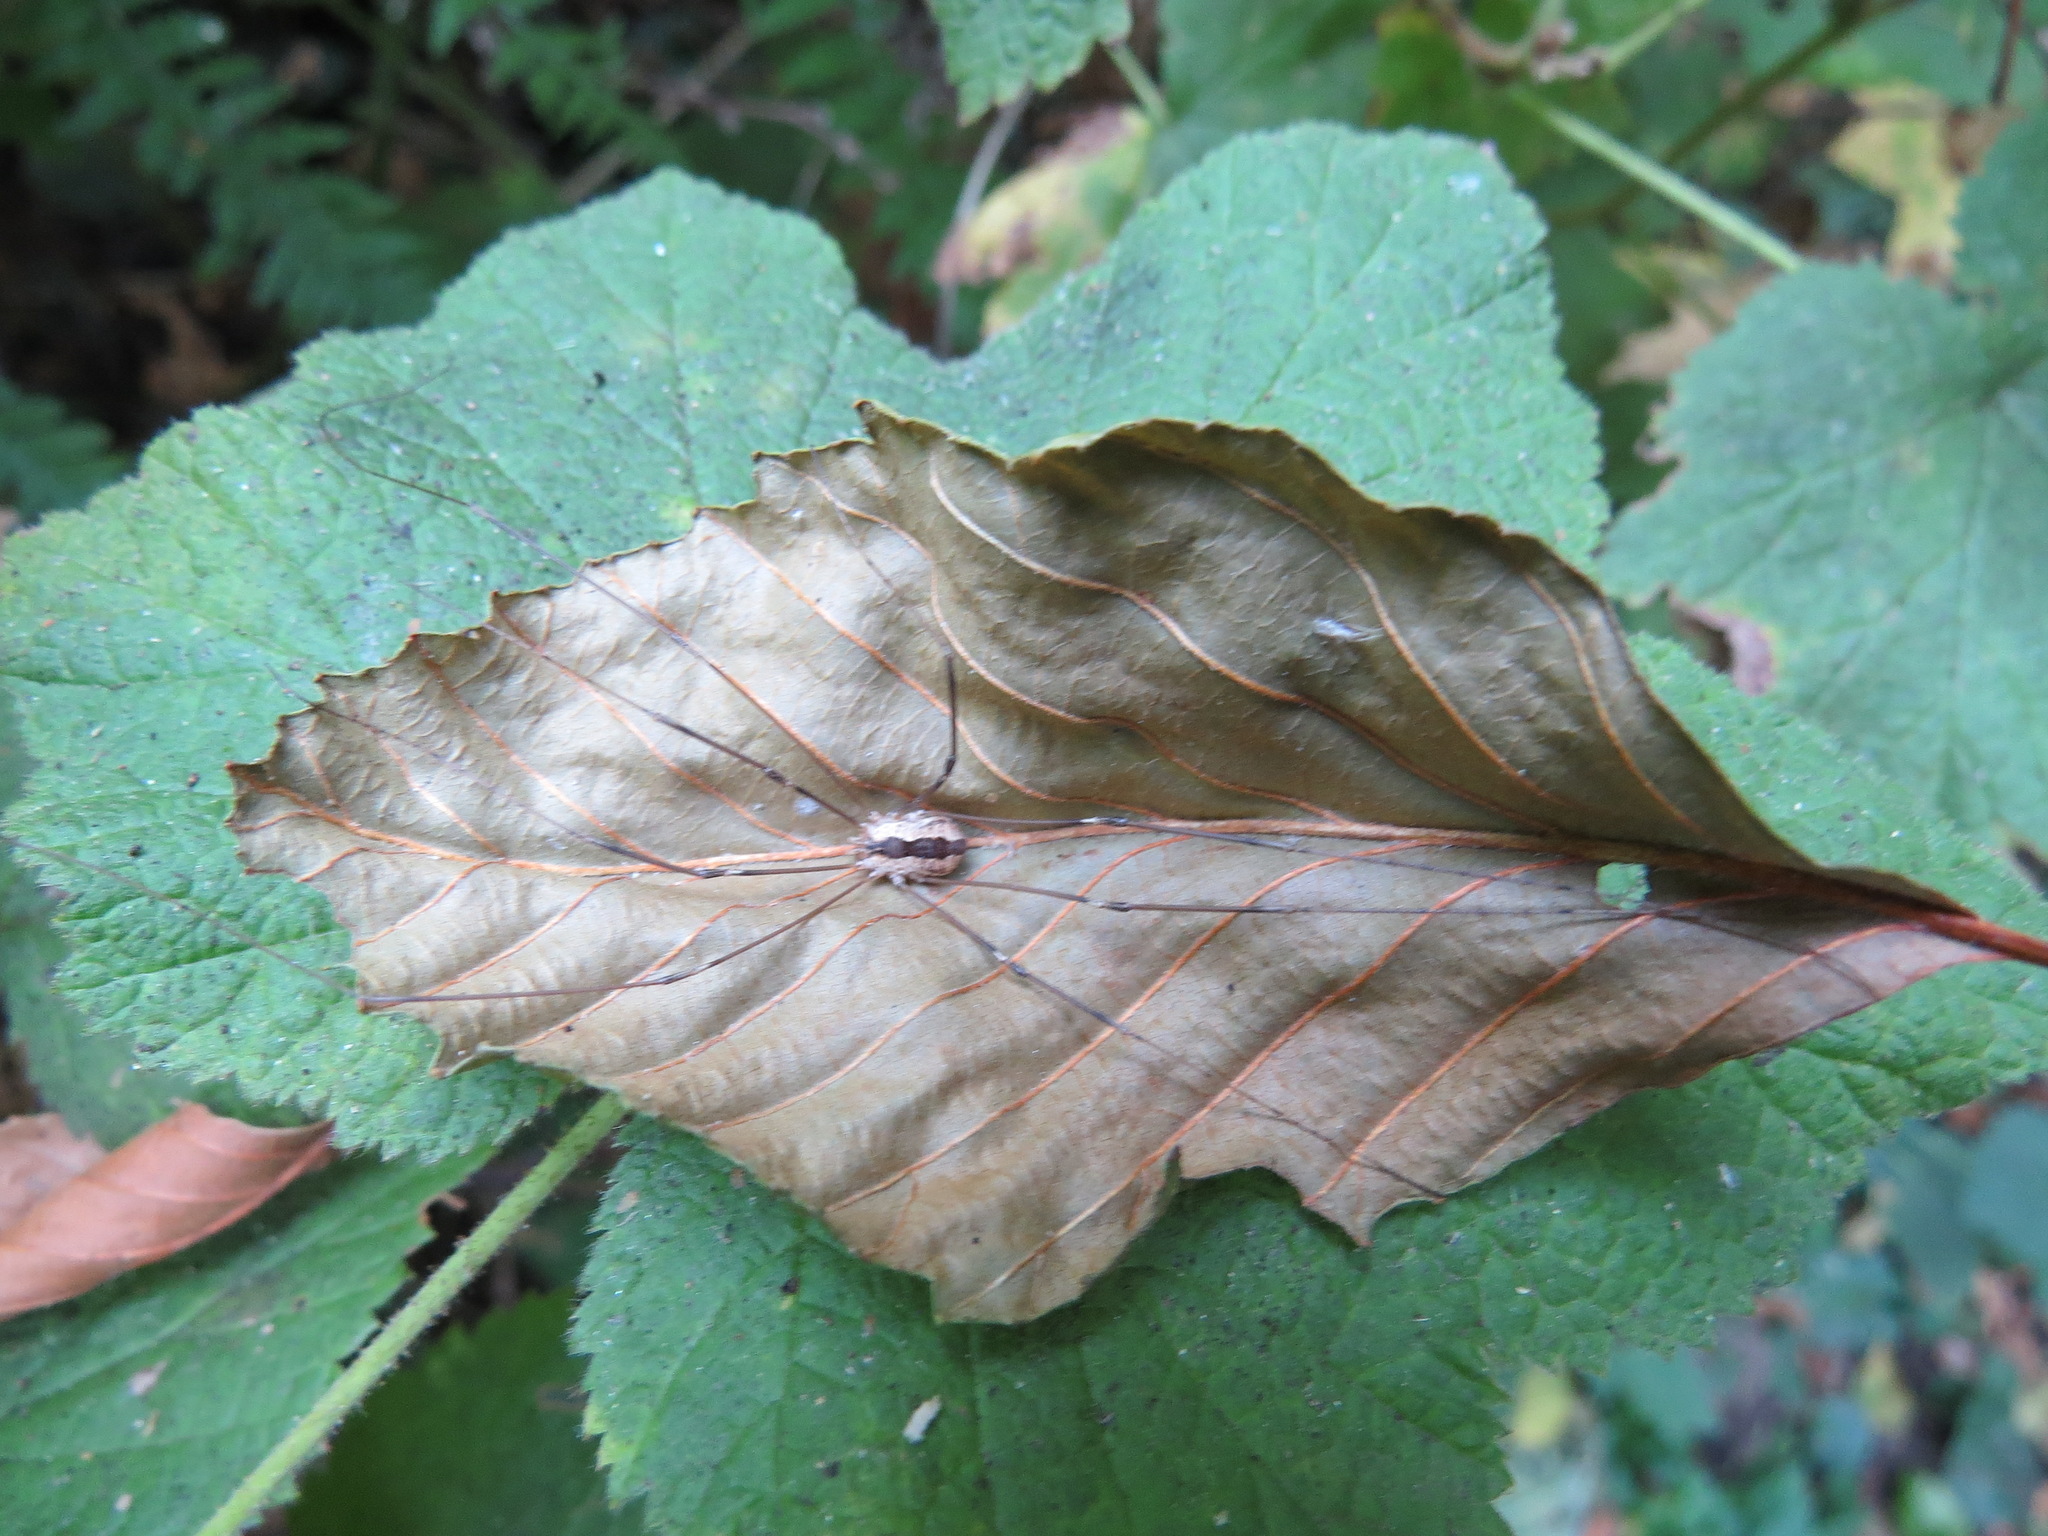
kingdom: Animalia
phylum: Arthropoda
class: Arachnida
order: Opiliones
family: Sclerosomatidae
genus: Leuronychus
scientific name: Leuronychus pacificus
